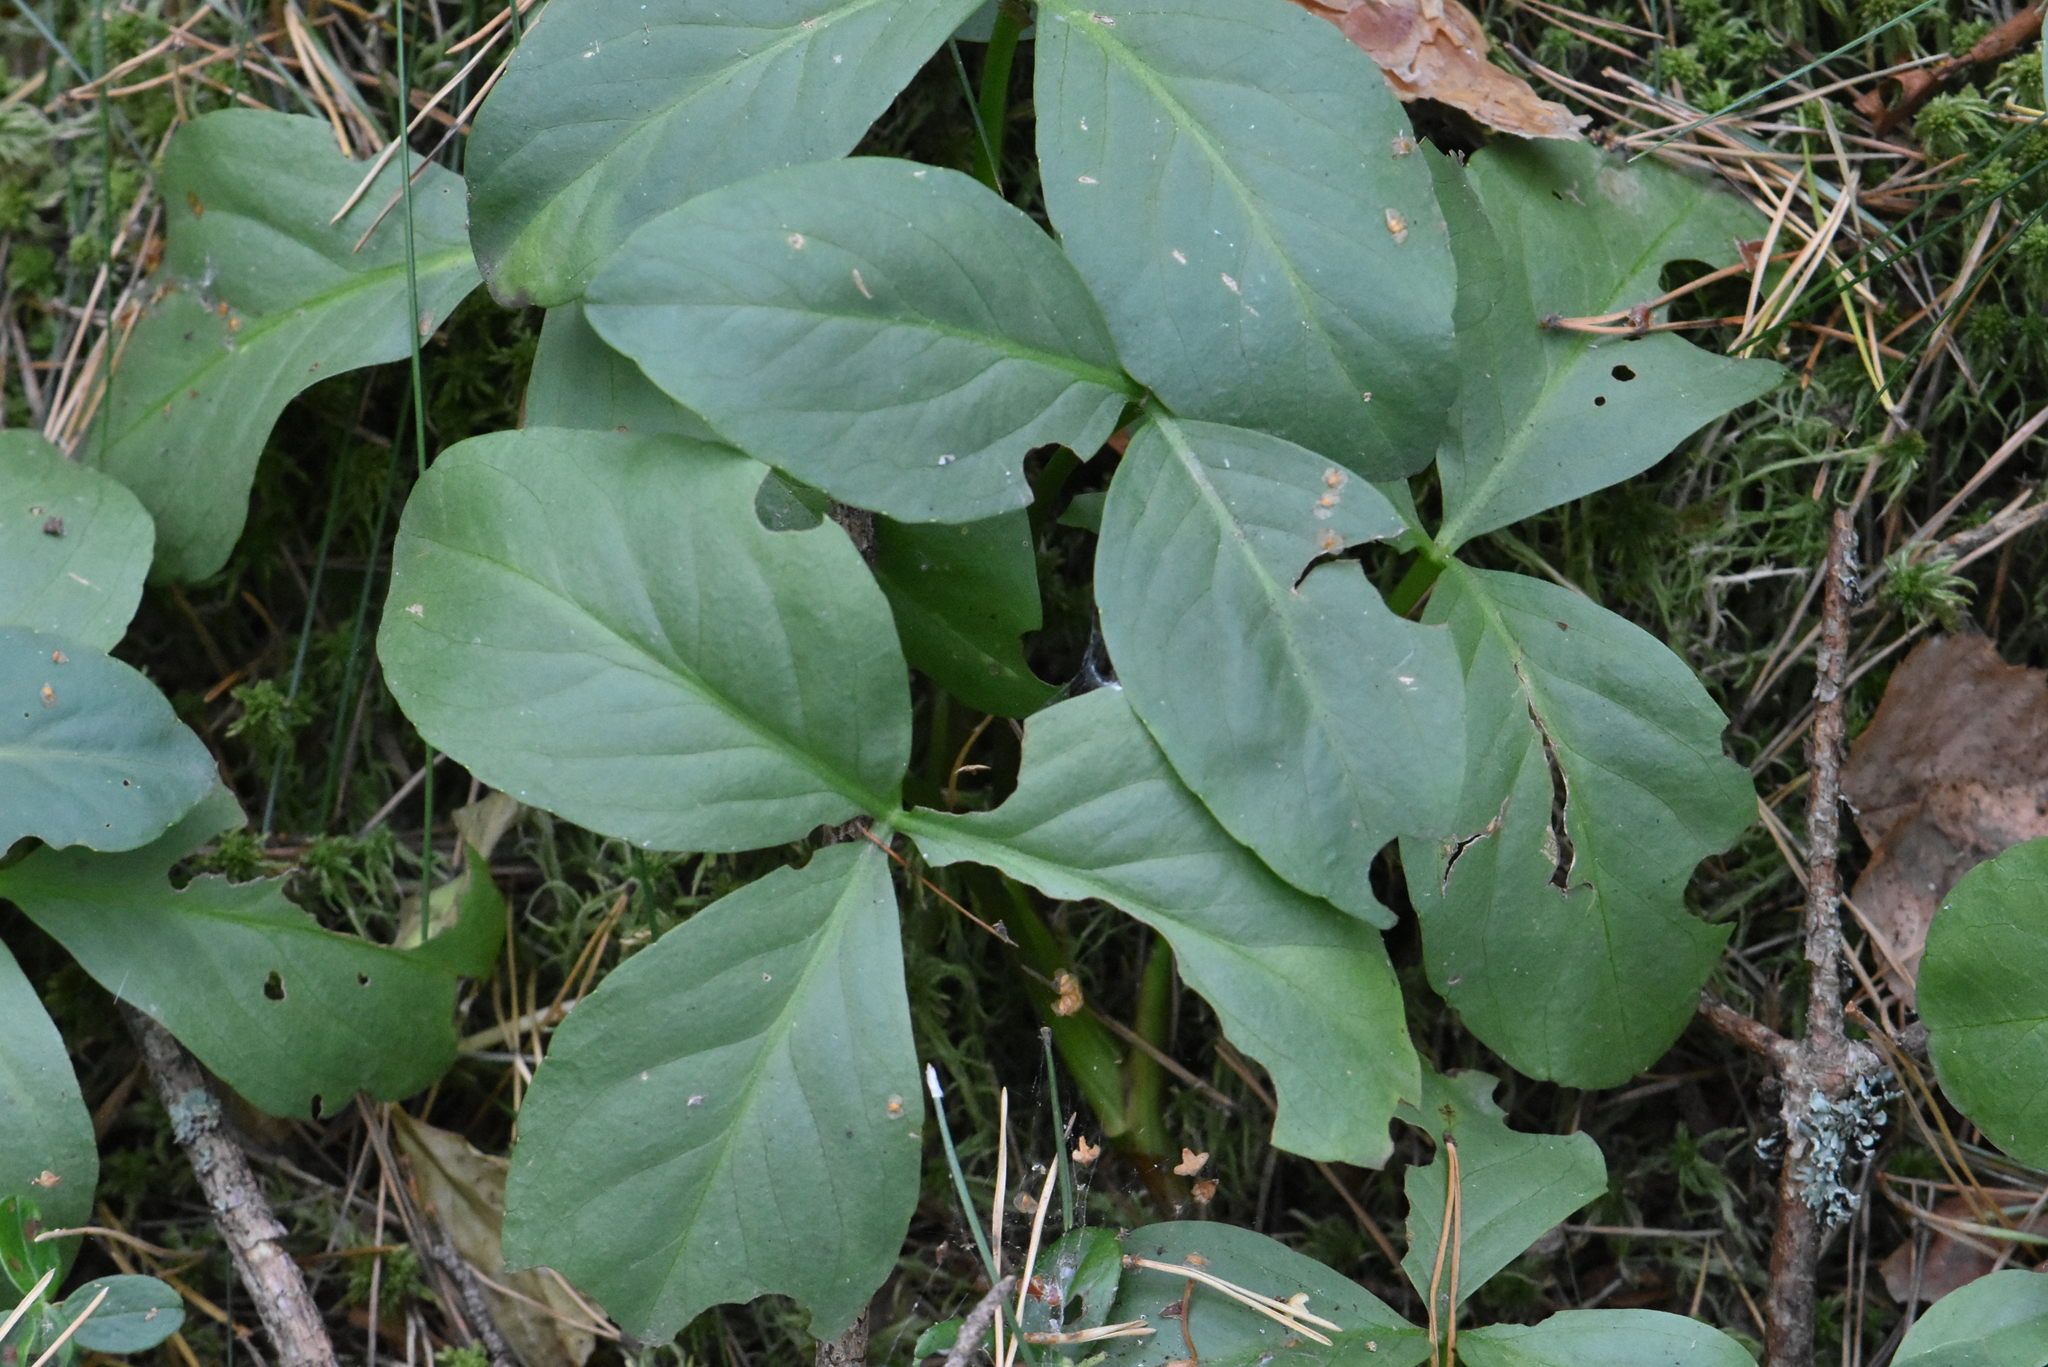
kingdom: Plantae
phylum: Tracheophyta
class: Magnoliopsida
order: Asterales
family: Menyanthaceae
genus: Menyanthes
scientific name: Menyanthes trifoliata
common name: Bogbean
